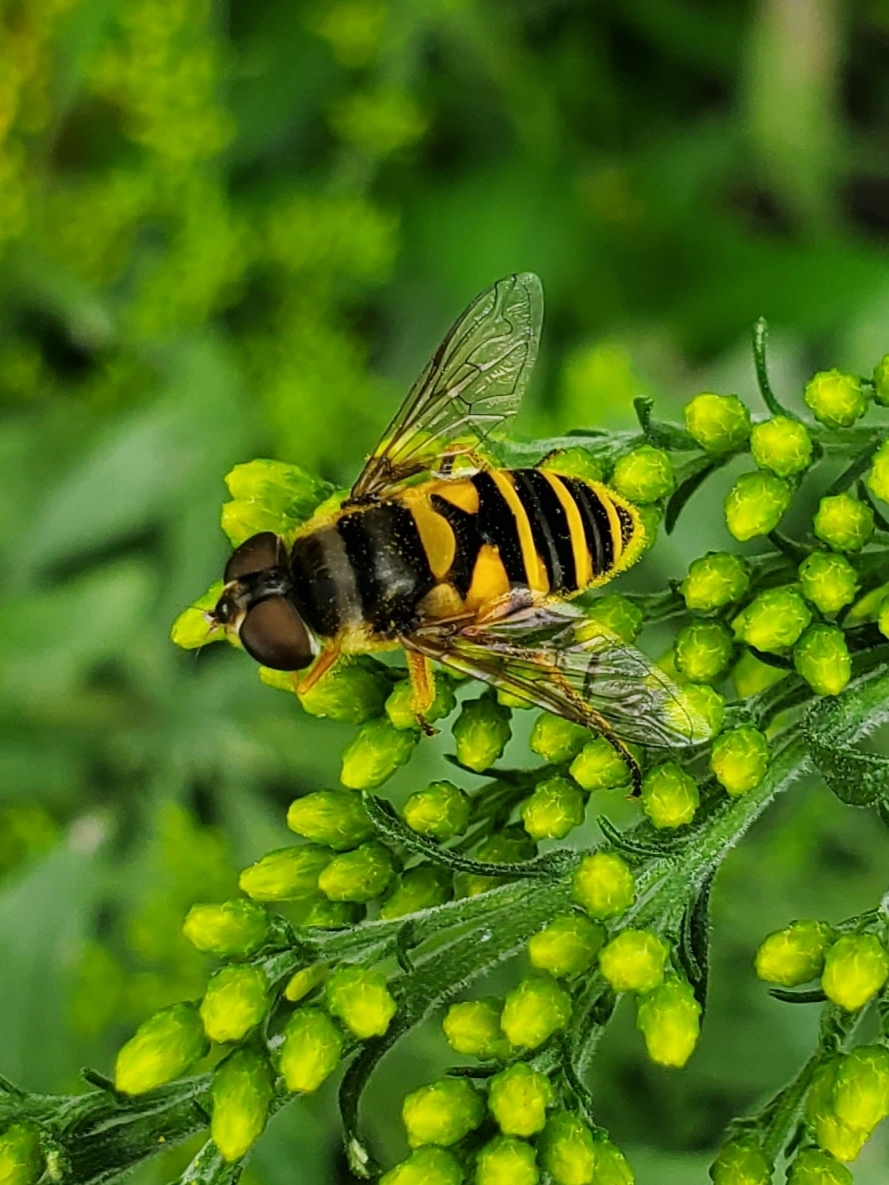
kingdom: Animalia
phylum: Arthropoda
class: Insecta
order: Diptera
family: Syrphidae
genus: Eristalis
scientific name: Eristalis transversa
